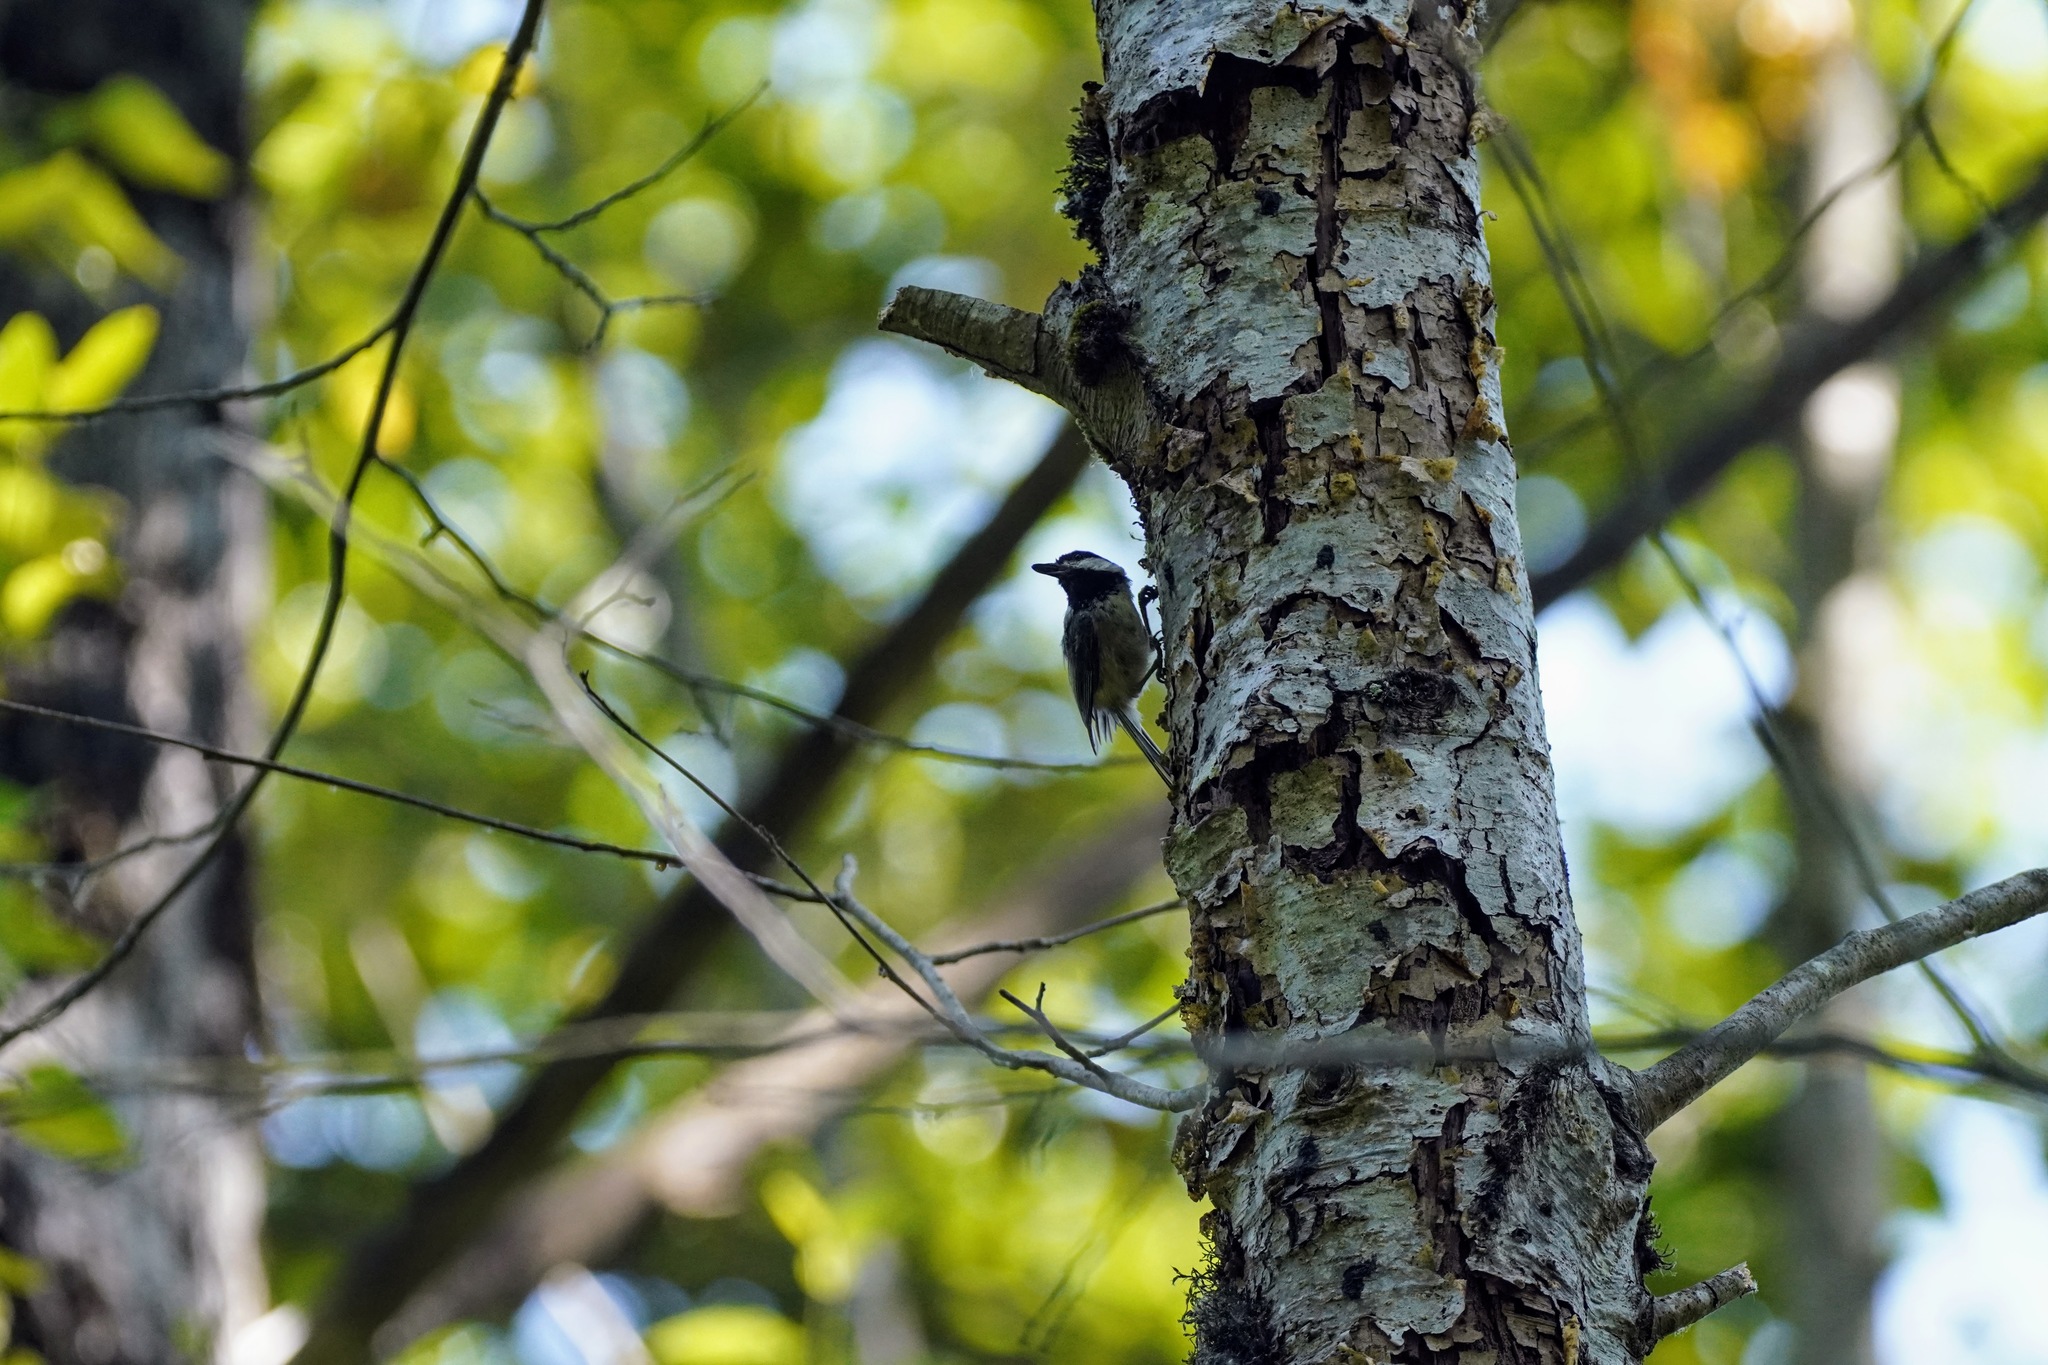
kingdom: Animalia
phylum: Chordata
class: Aves
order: Passeriformes
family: Paridae
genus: Poecile
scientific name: Poecile atricapillus
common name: Black-capped chickadee
